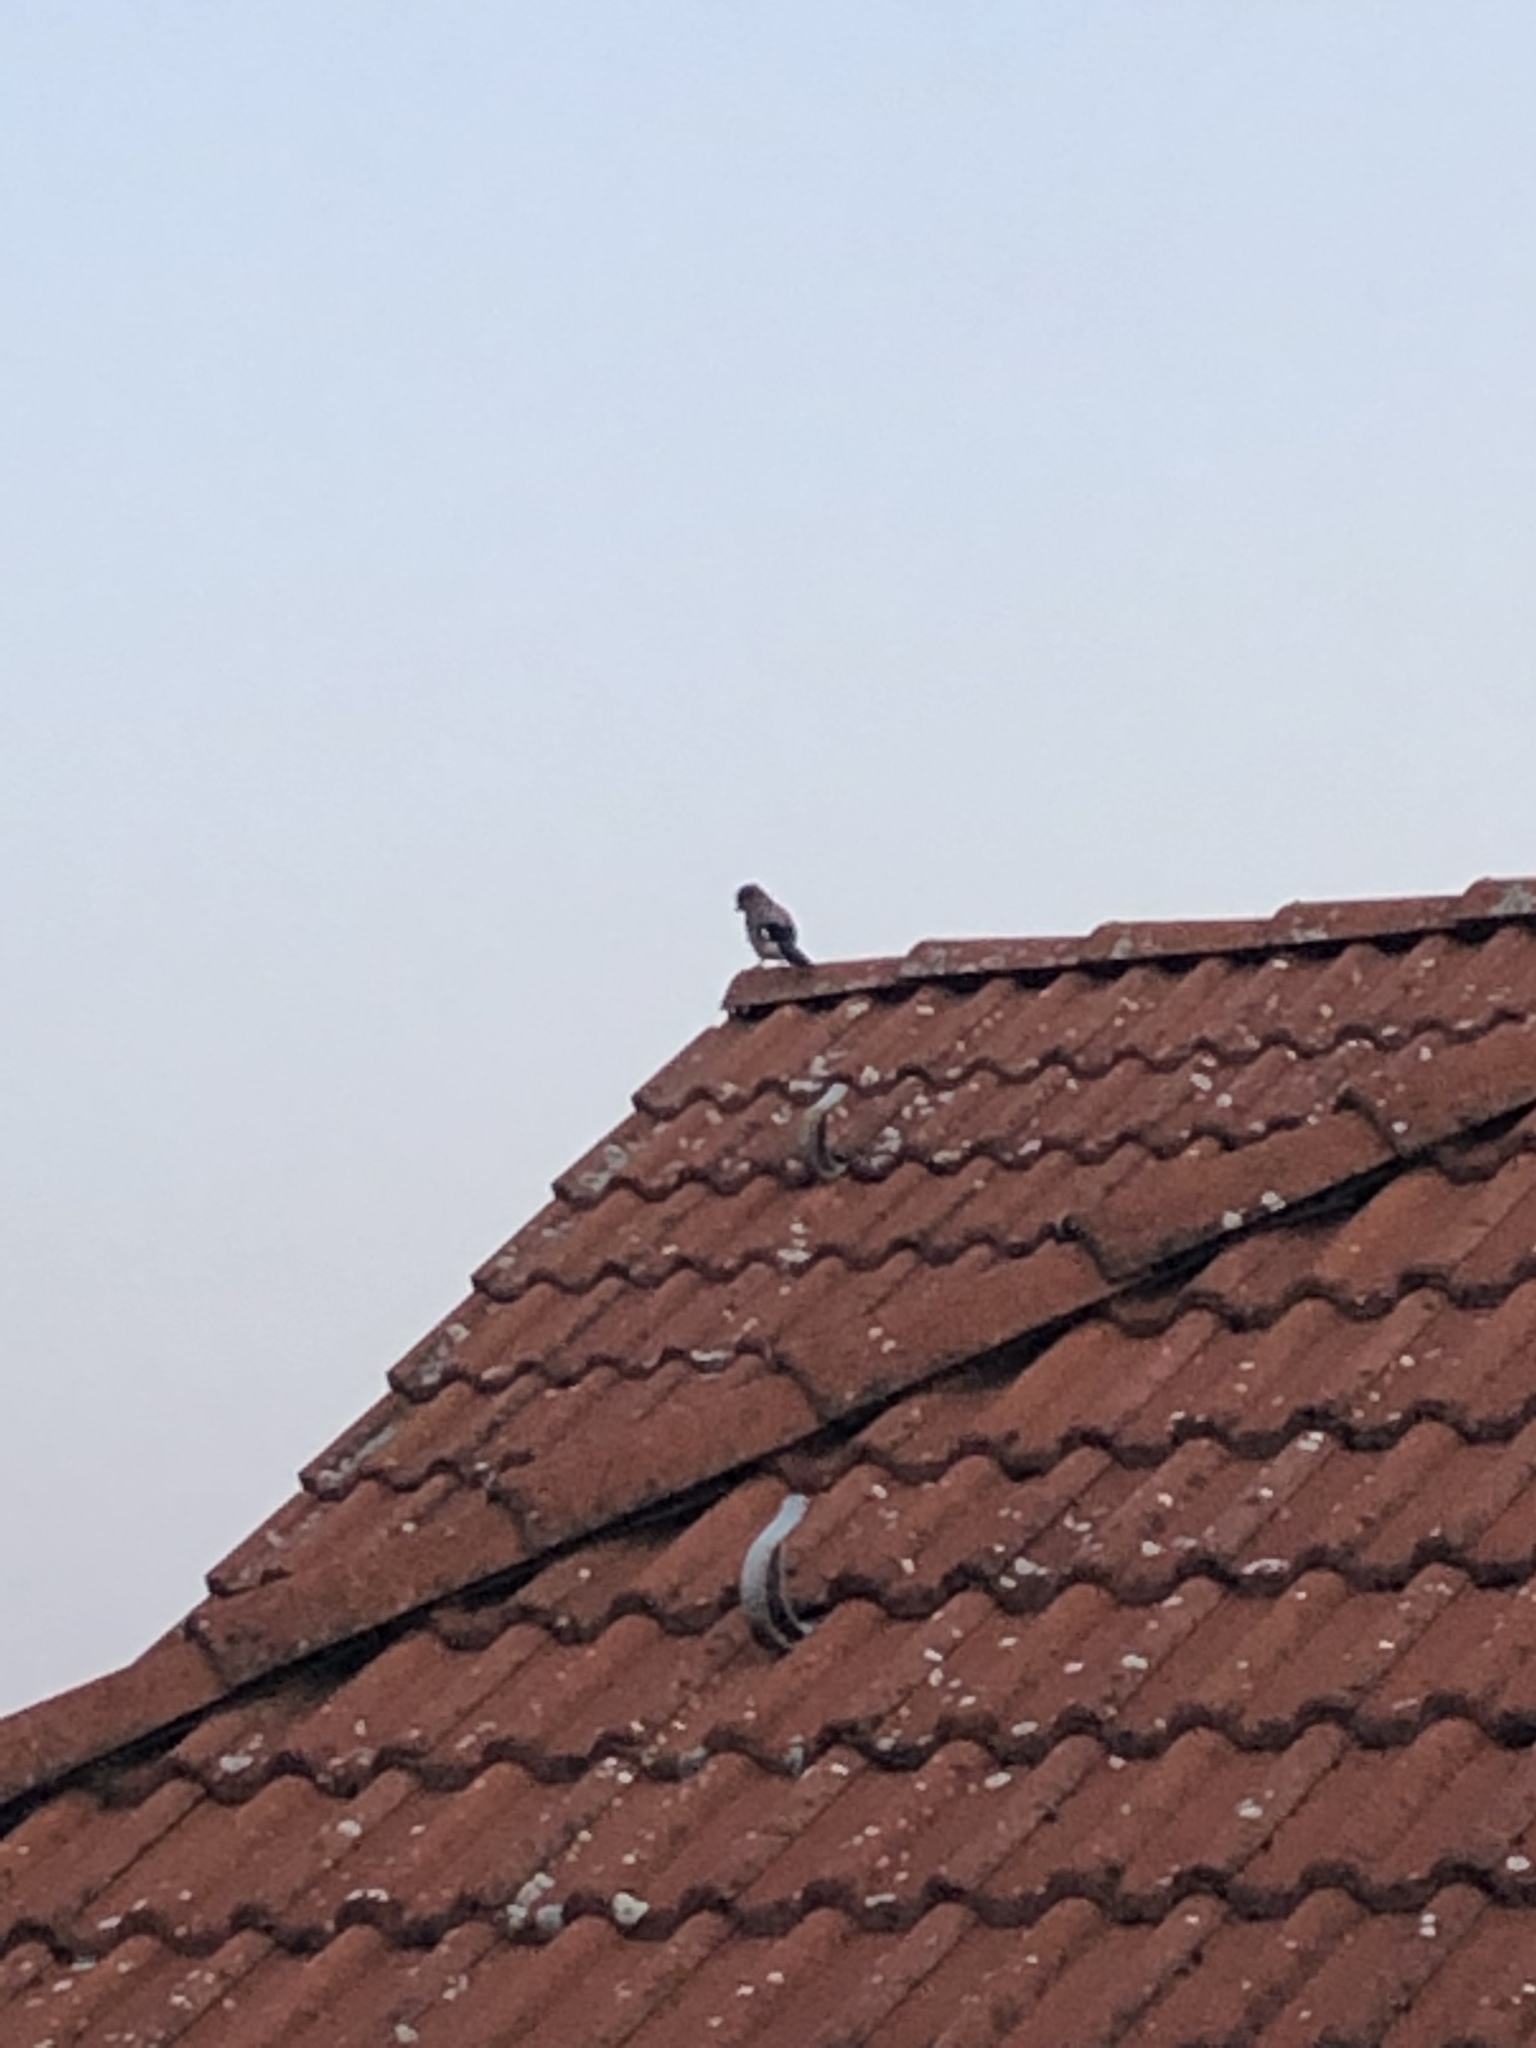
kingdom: Animalia
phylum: Chordata
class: Aves
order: Passeriformes
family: Corvidae
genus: Garrulus
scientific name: Garrulus glandarius
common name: Eurasian jay
